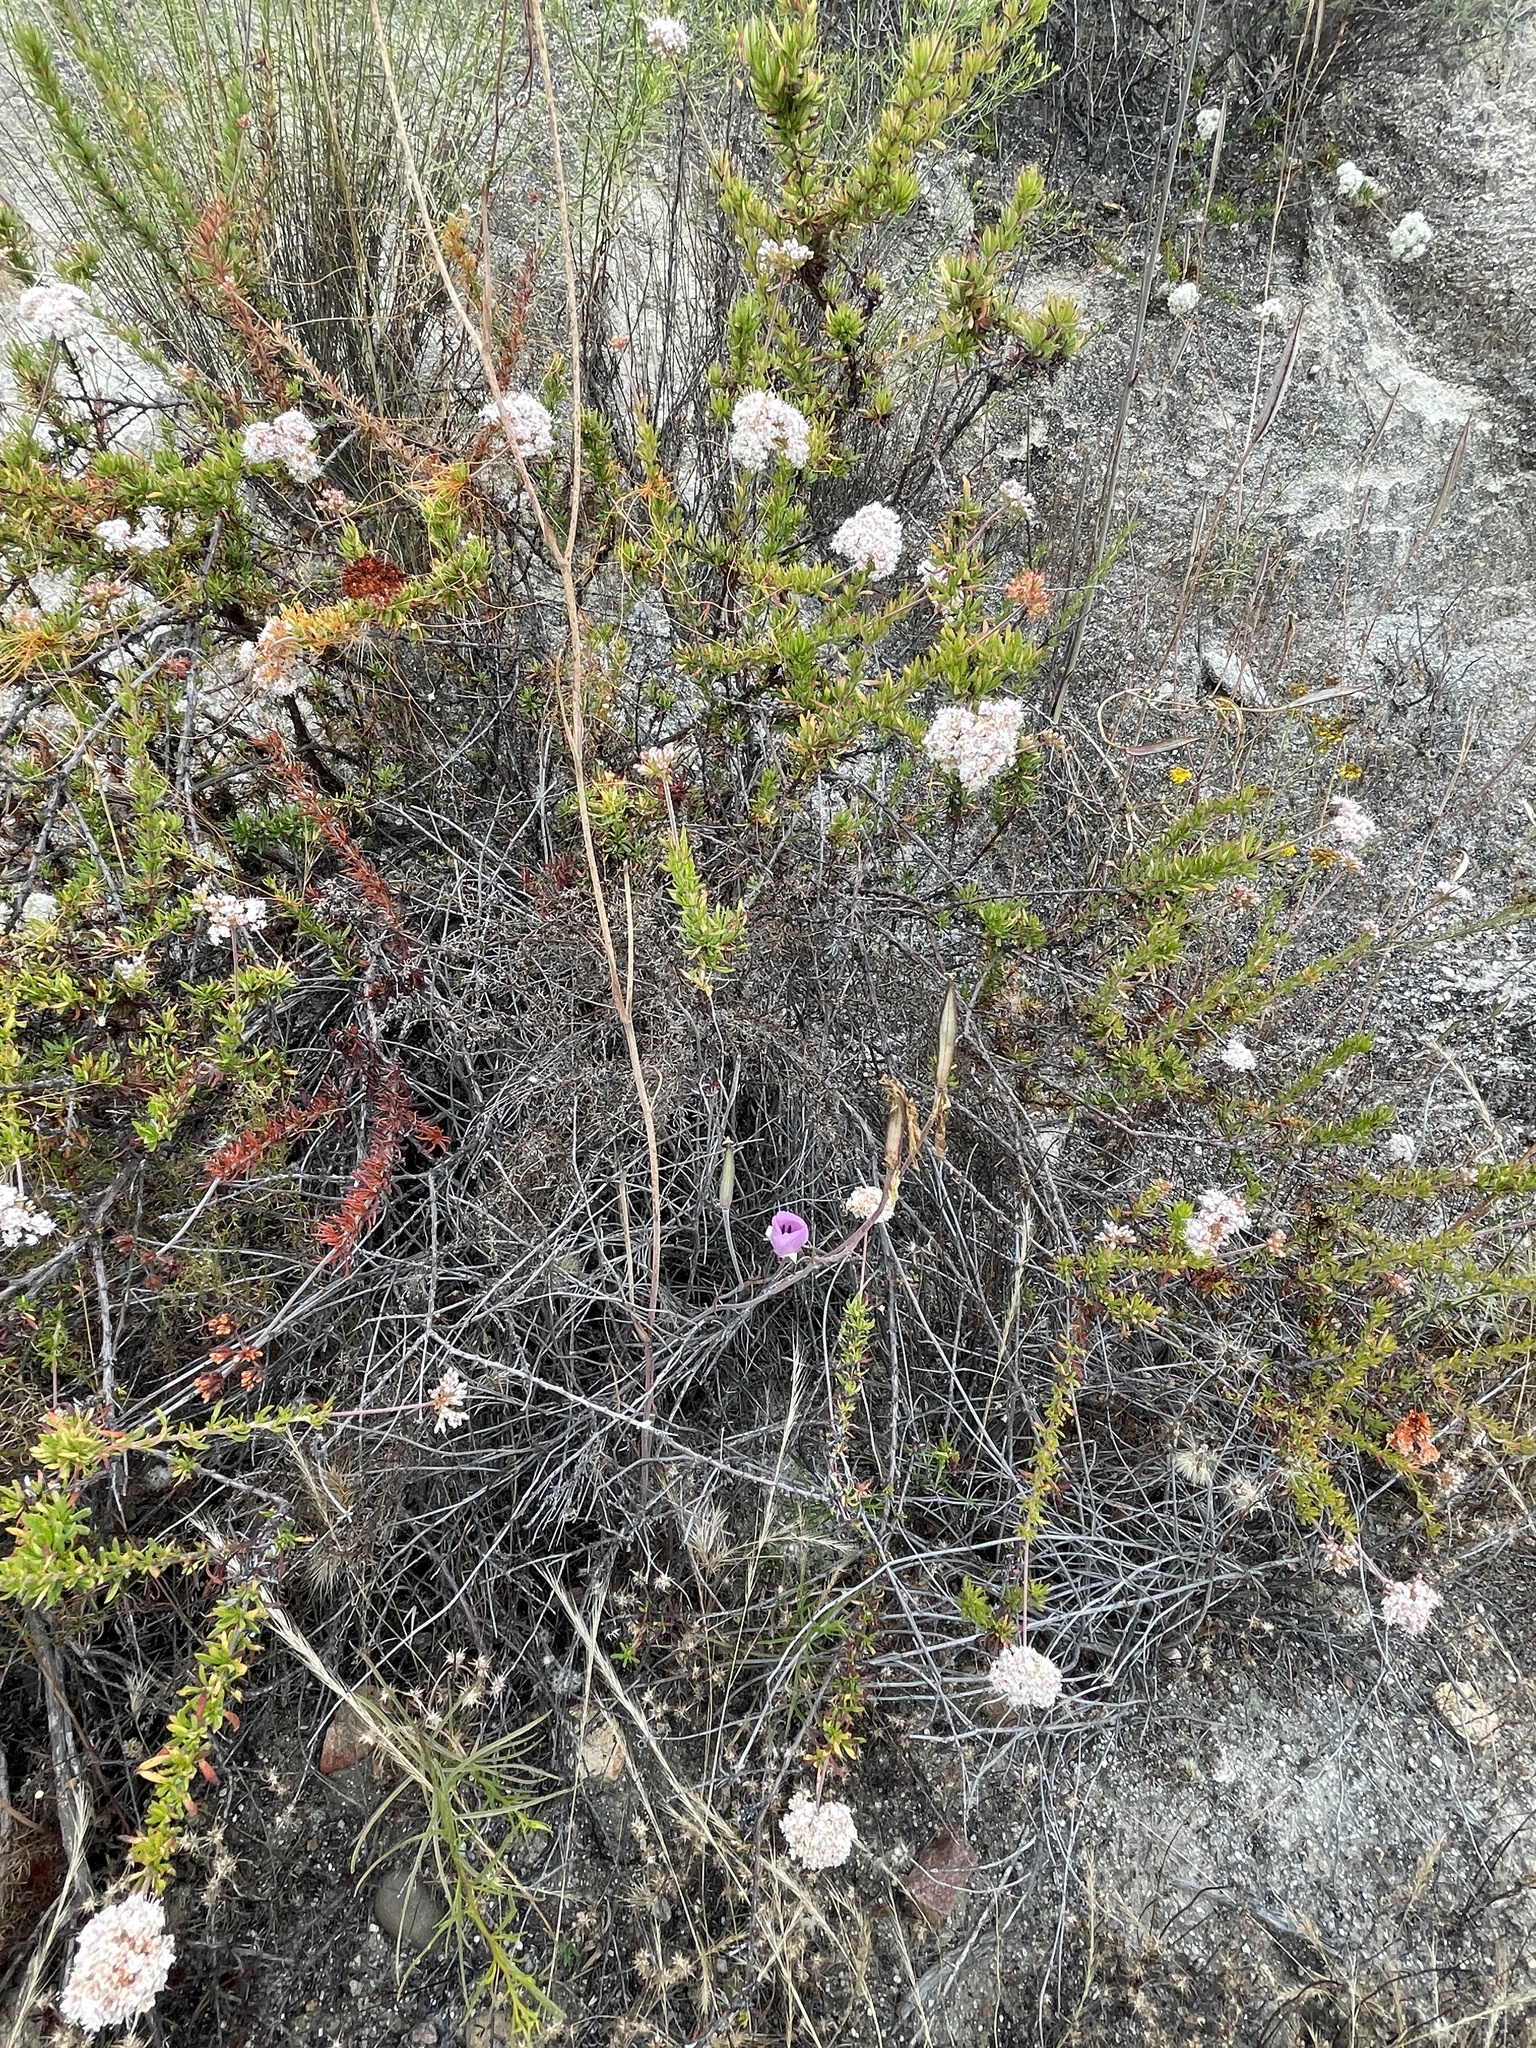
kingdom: Plantae
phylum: Tracheophyta
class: Liliopsida
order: Liliales
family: Liliaceae
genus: Calochortus
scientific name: Calochortus splendens
